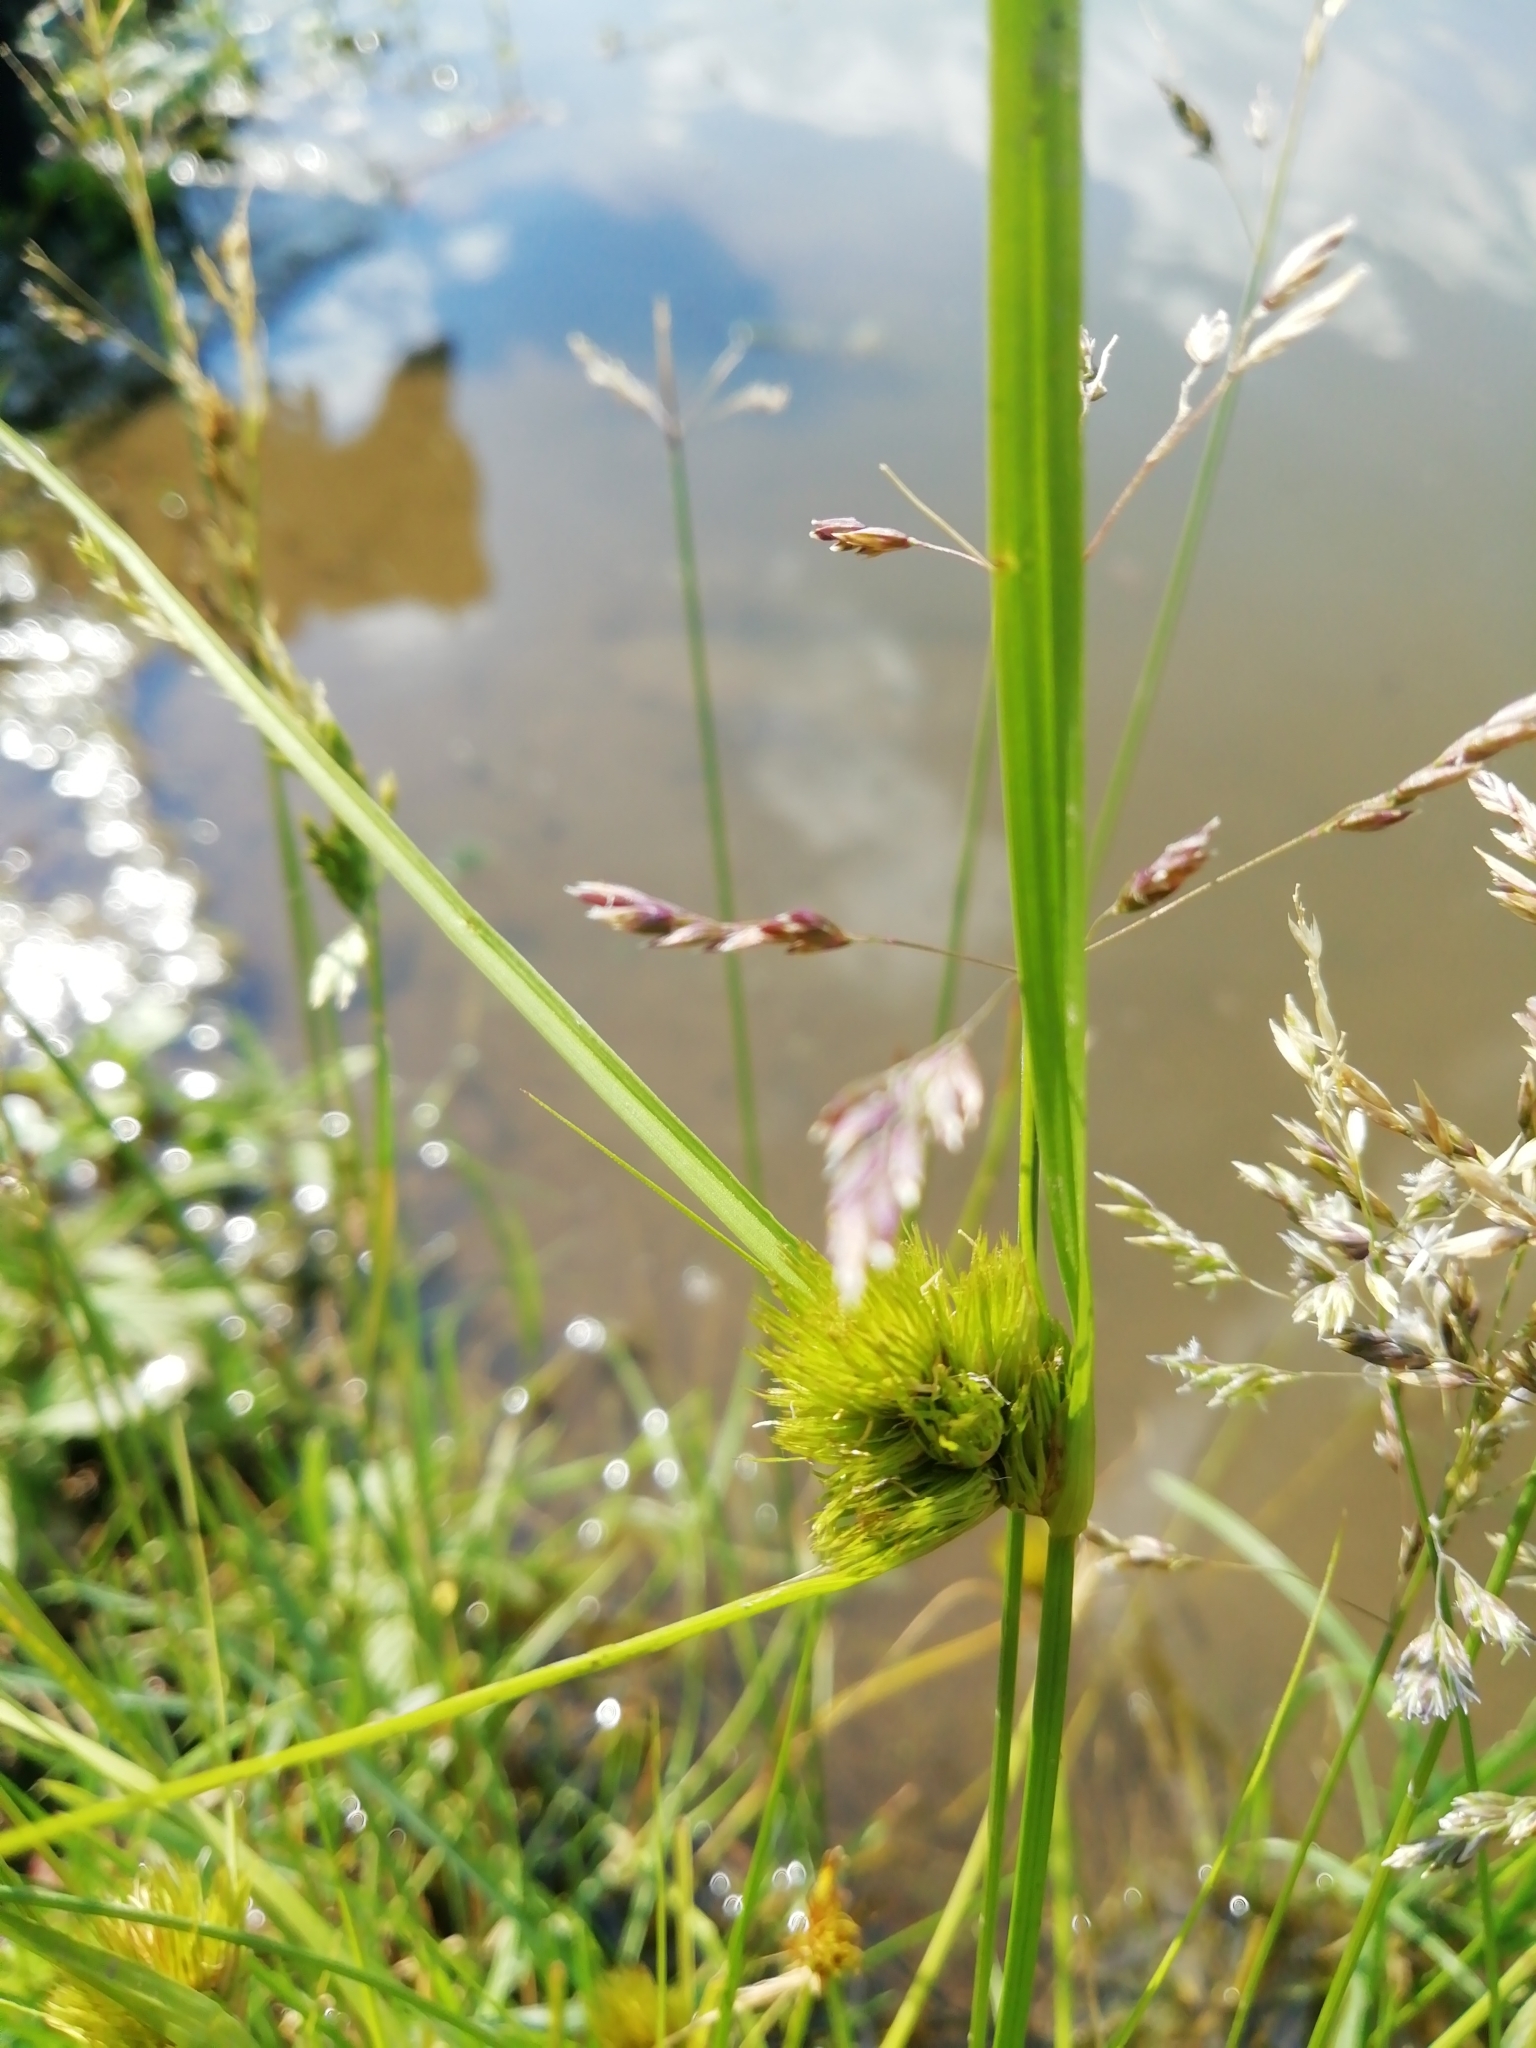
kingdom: Plantae
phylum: Tracheophyta
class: Liliopsida
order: Poales
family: Cyperaceae
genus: Carex
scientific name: Carex bohemica
